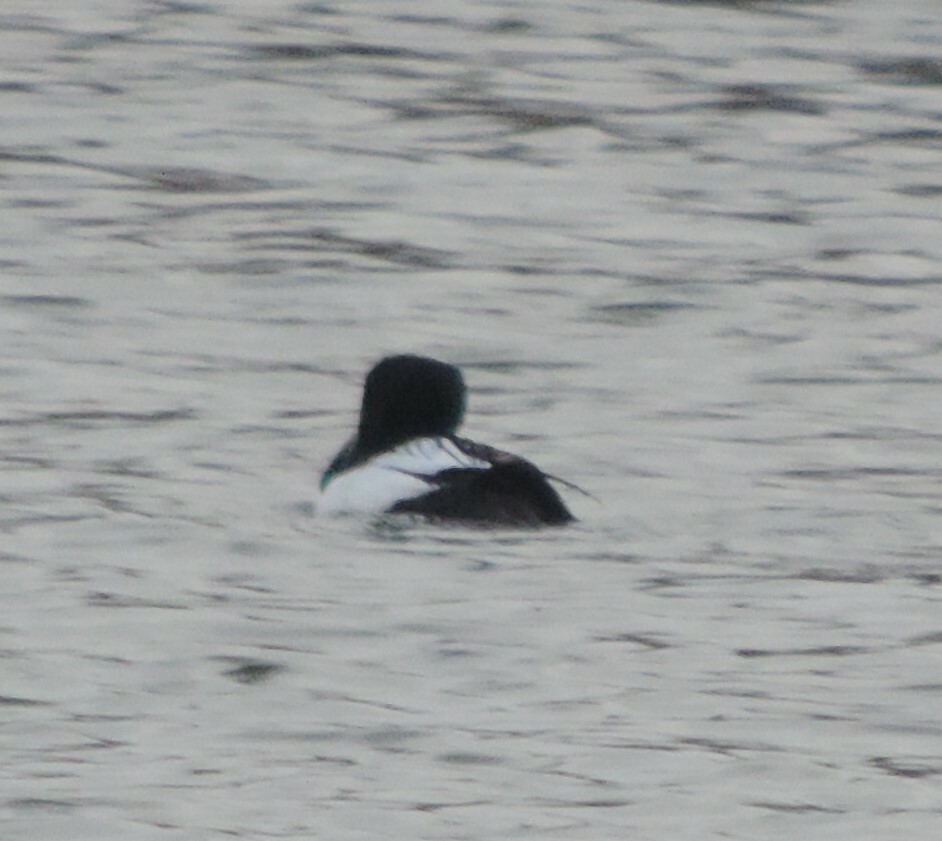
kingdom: Animalia
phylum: Chordata
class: Aves
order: Anseriformes
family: Anatidae
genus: Bucephala
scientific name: Bucephala clangula
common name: Common goldeneye
